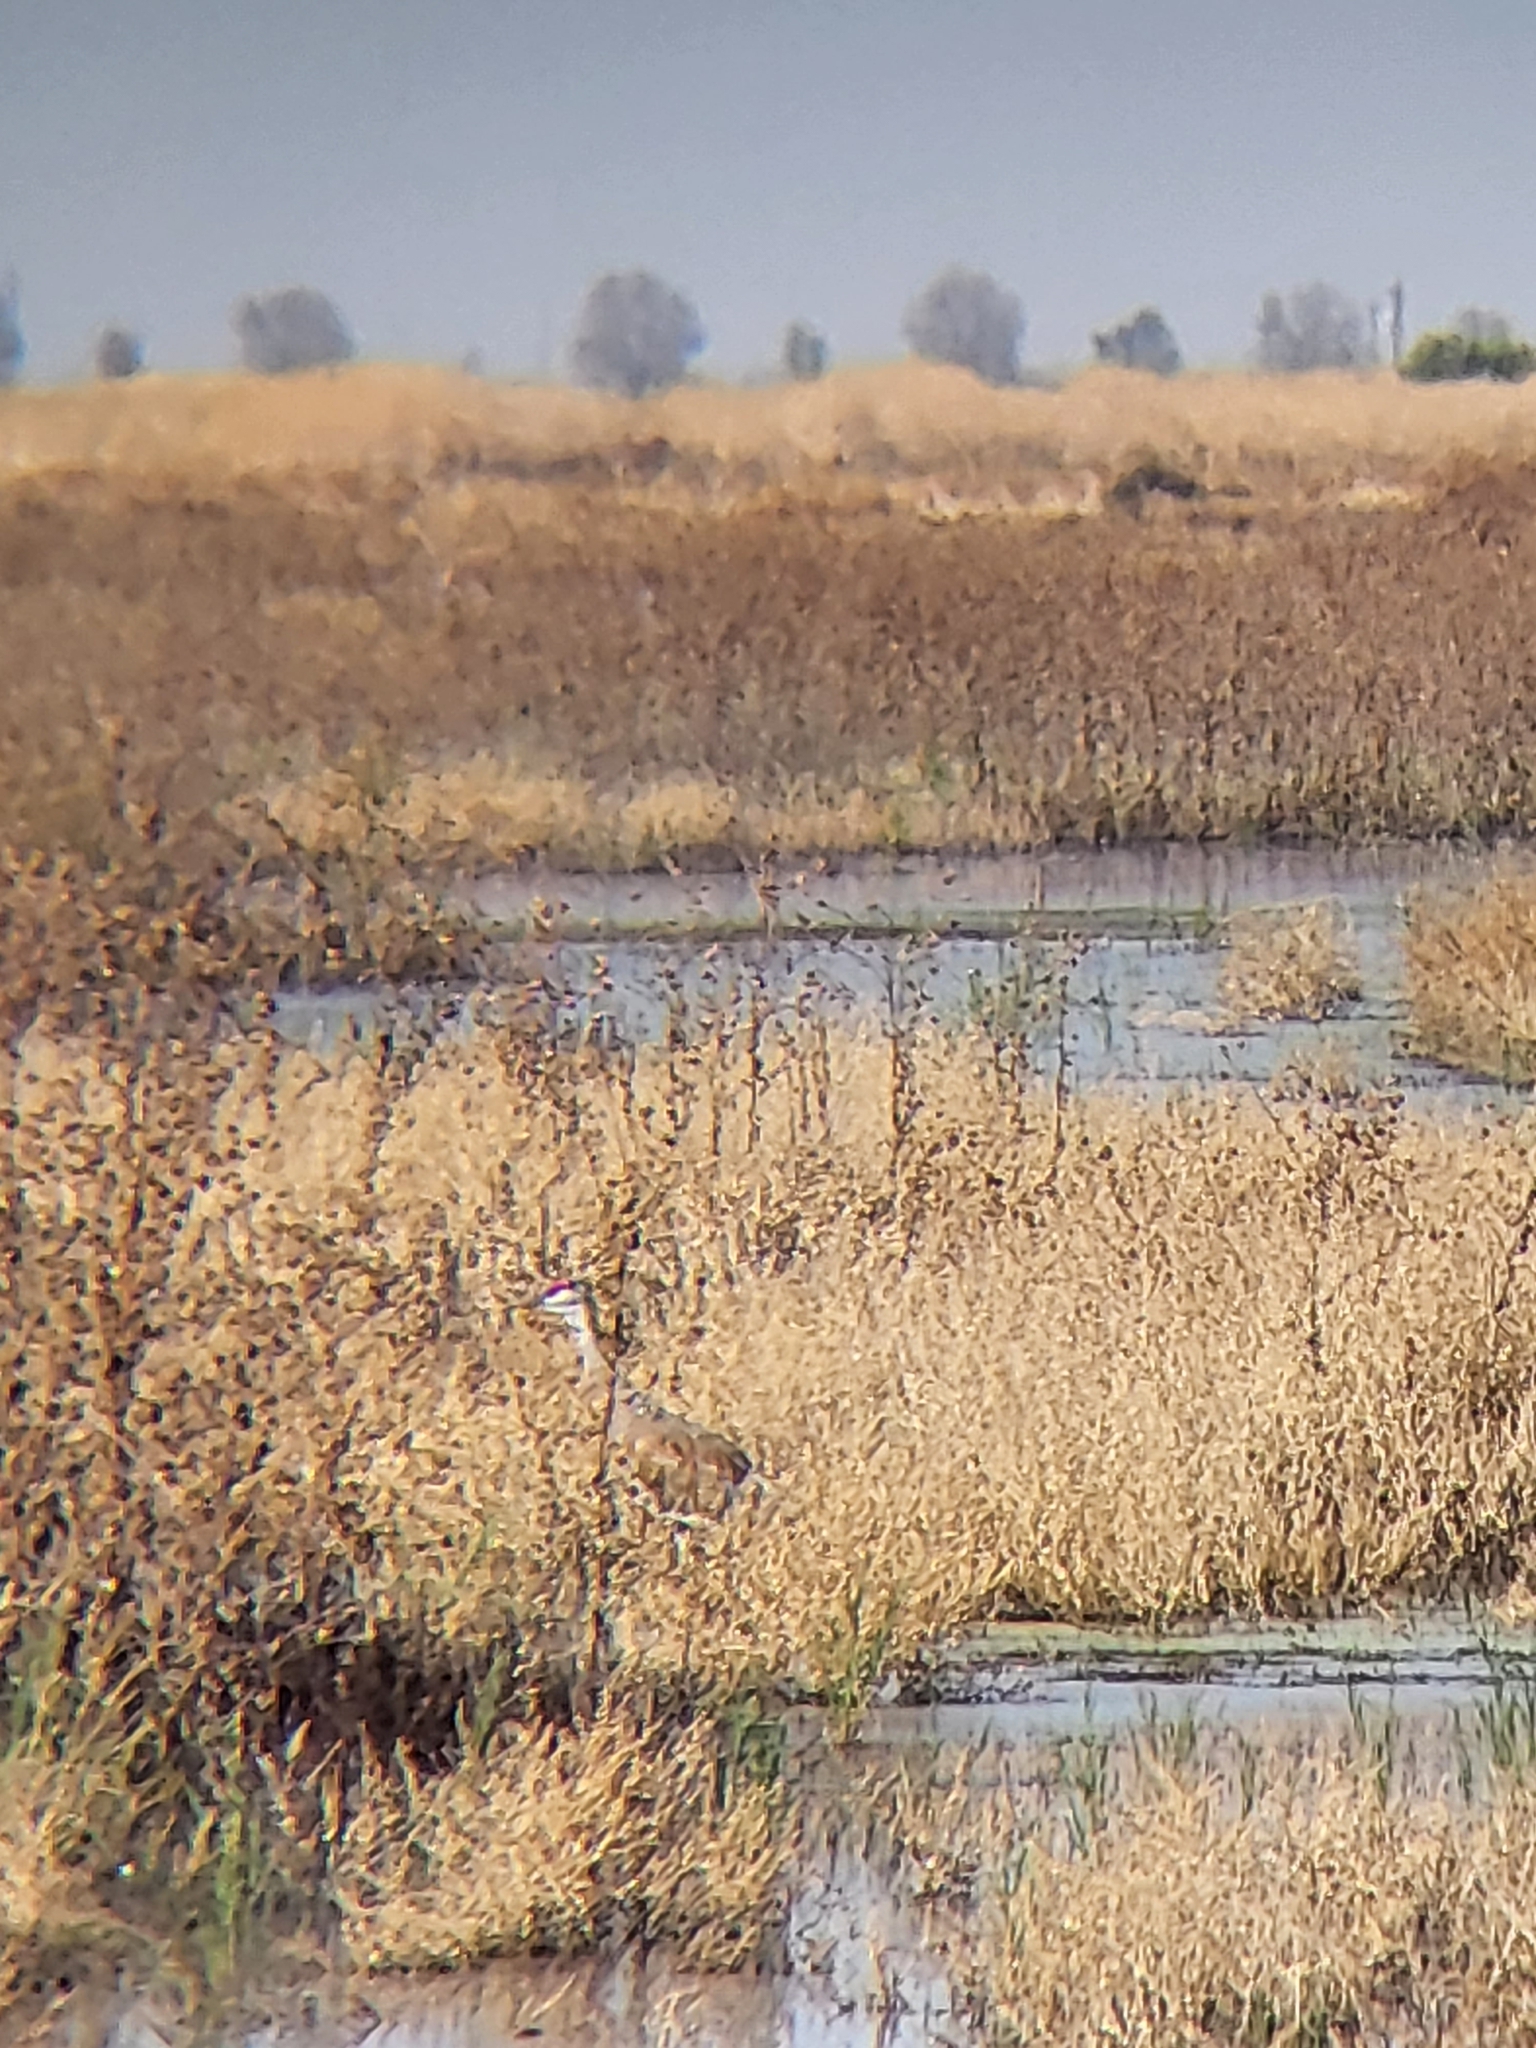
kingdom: Animalia
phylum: Chordata
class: Aves
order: Gruiformes
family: Gruidae
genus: Grus
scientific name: Grus canadensis
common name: Sandhill crane
